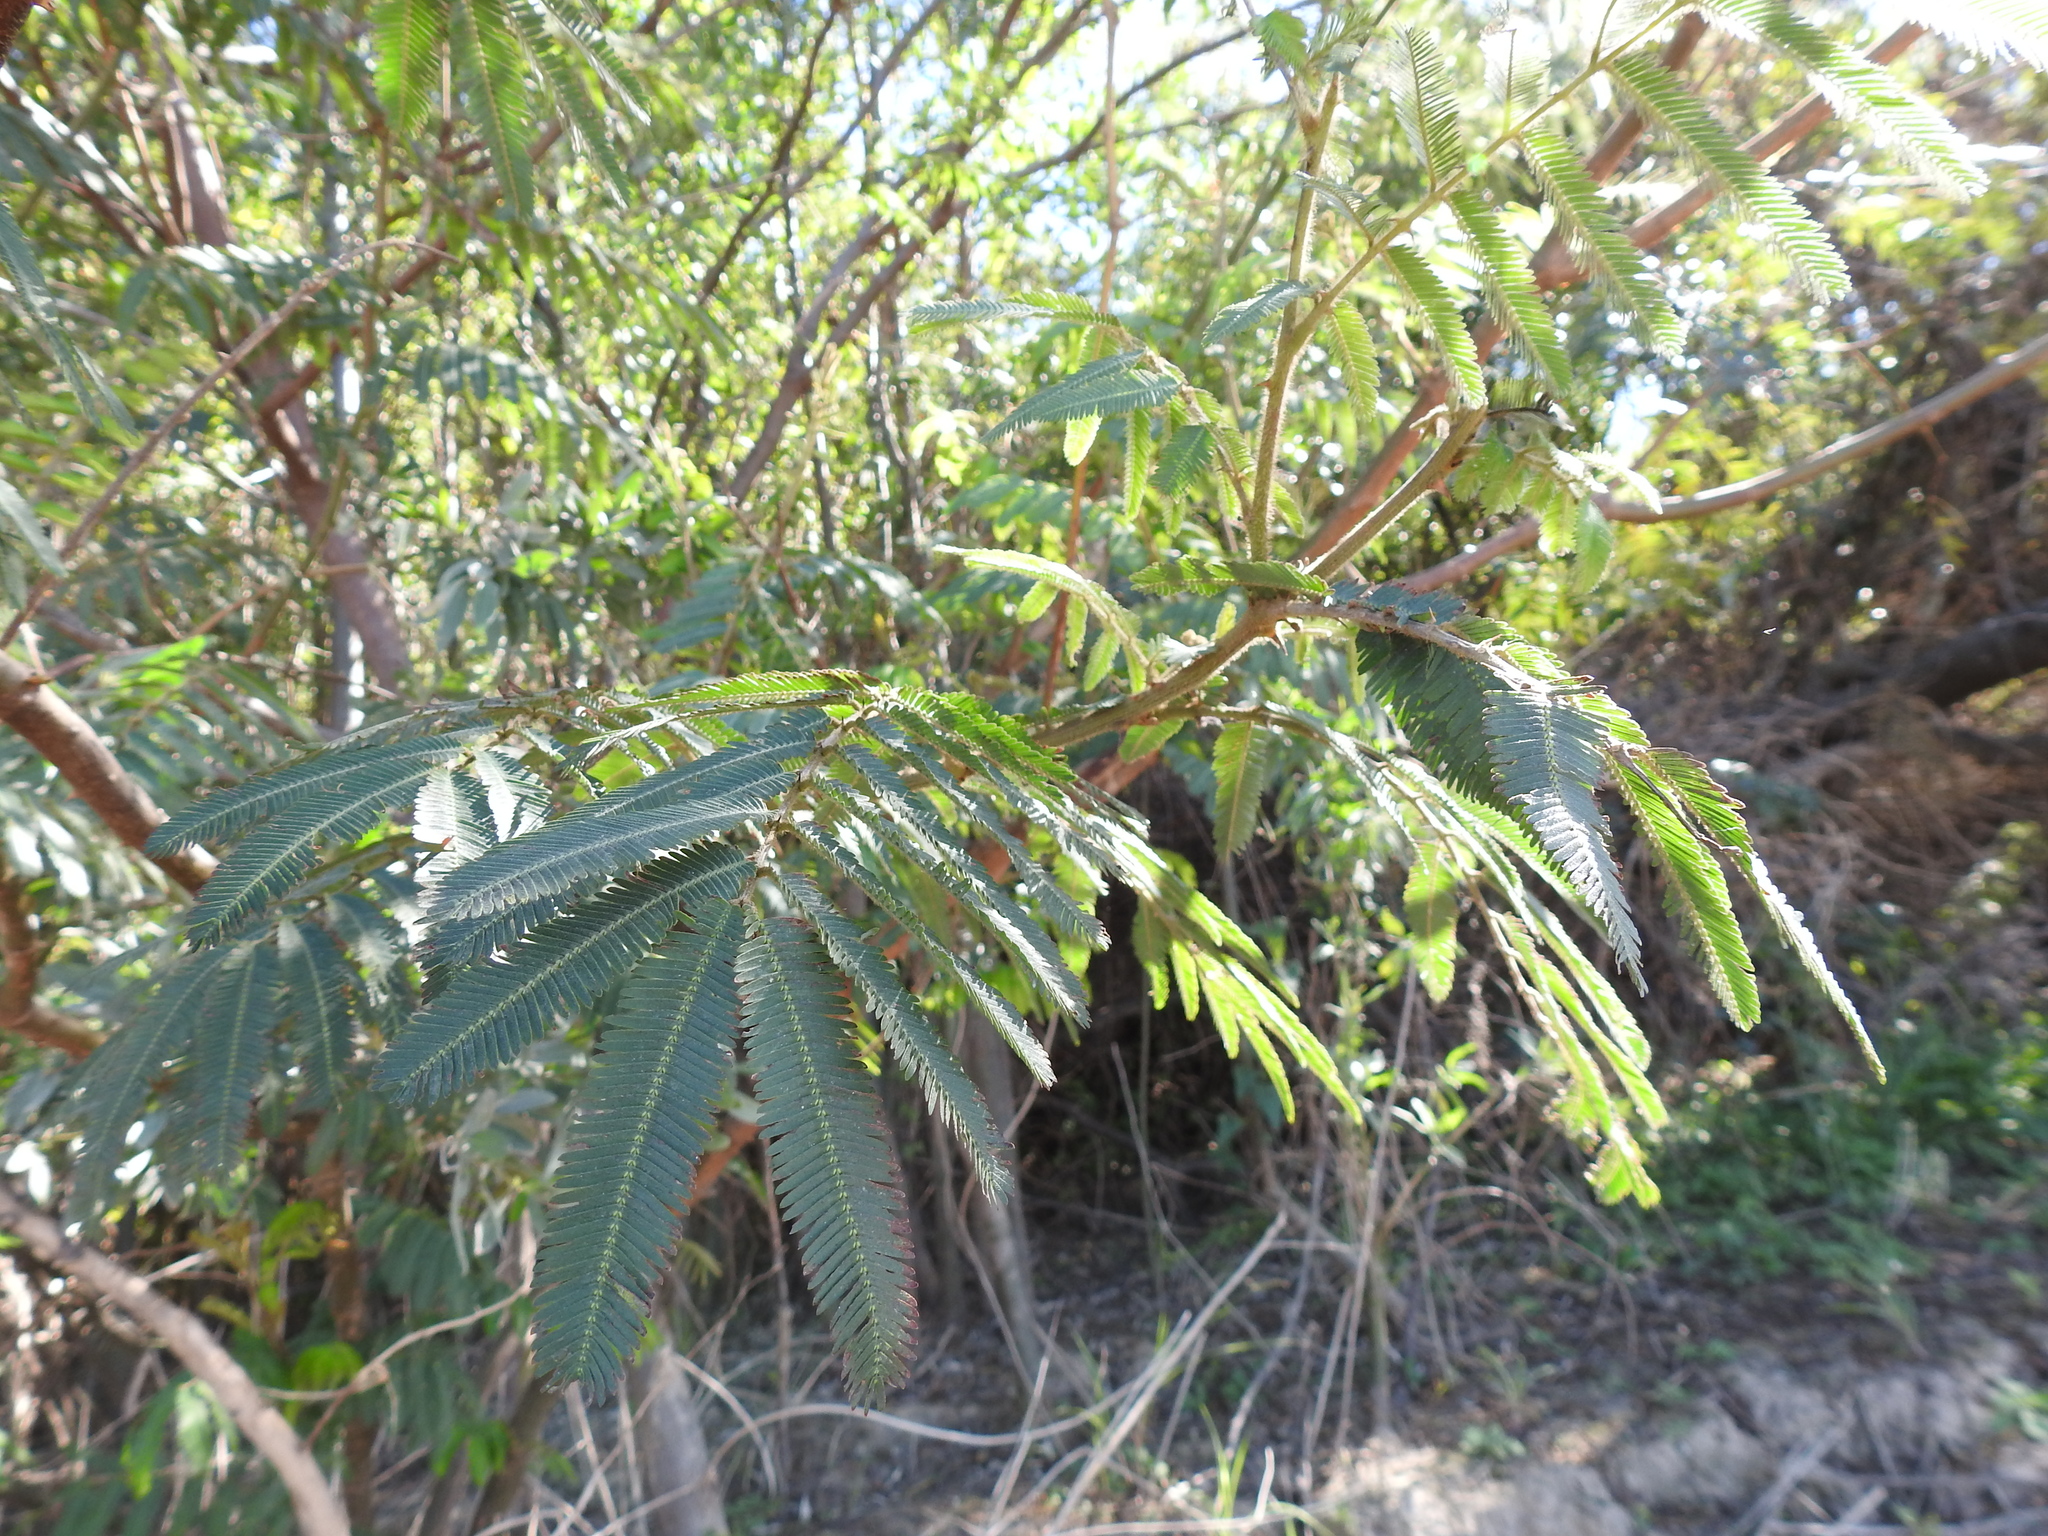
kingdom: Plantae
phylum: Tracheophyta
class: Magnoliopsida
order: Fabales
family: Fabaceae
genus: Mimosa
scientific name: Mimosa pigra
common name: Black mimosa
